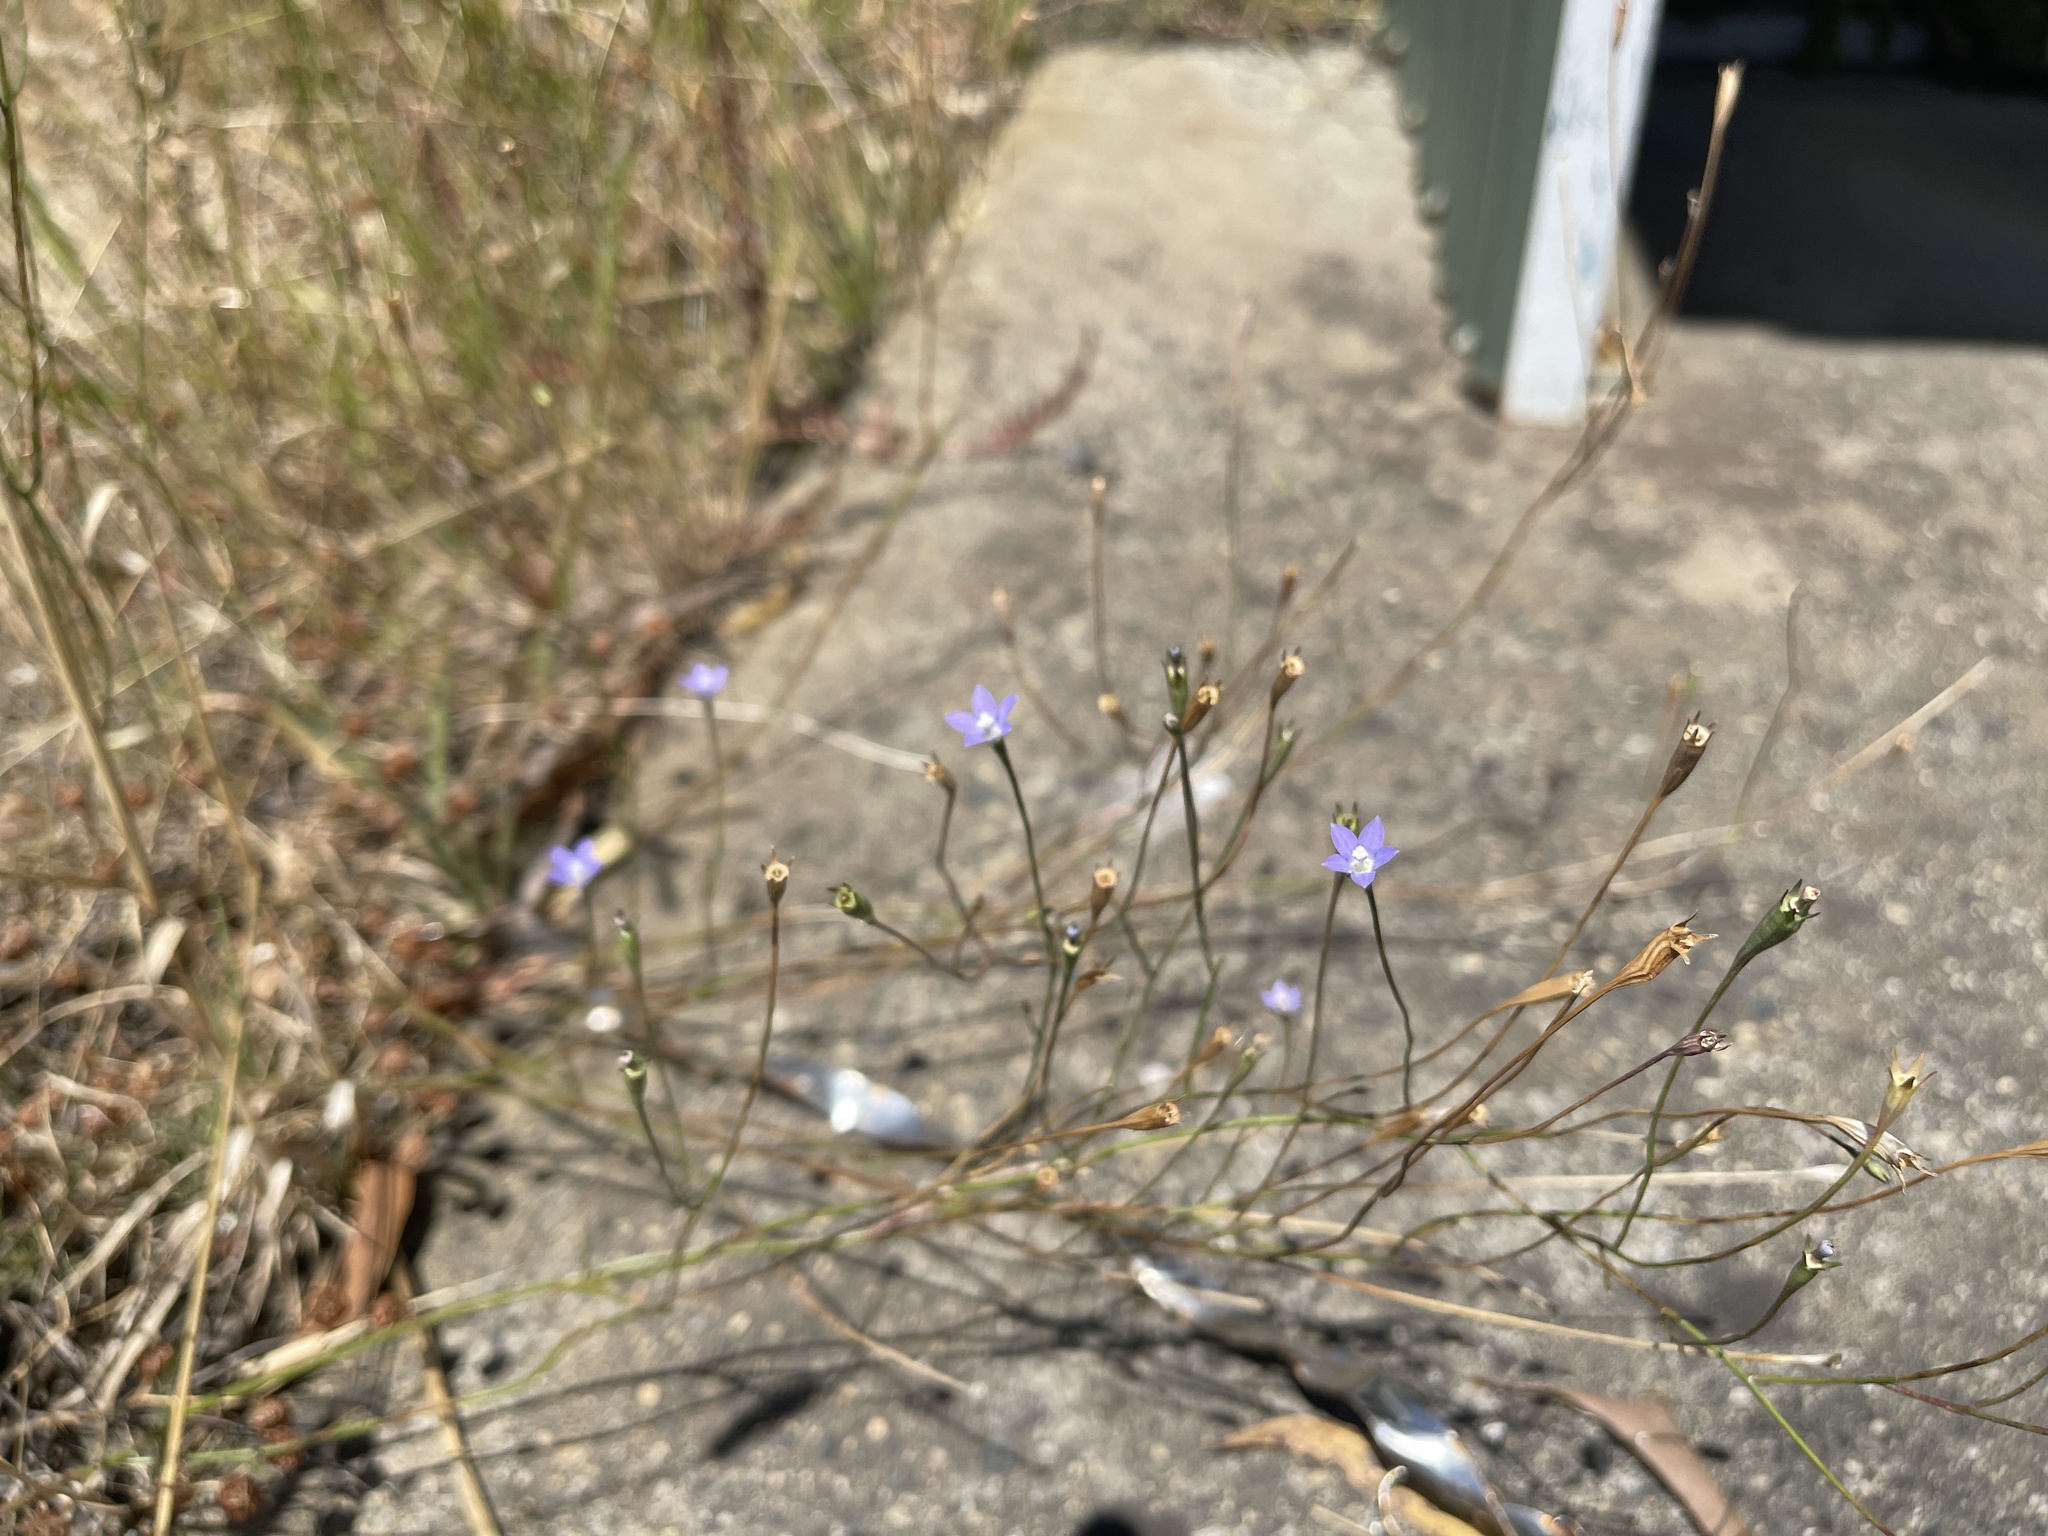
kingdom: Plantae
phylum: Tracheophyta
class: Magnoliopsida
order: Asterales
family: Campanulaceae
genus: Wahlenbergia
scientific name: Wahlenbergia gracilis
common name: Harebell
